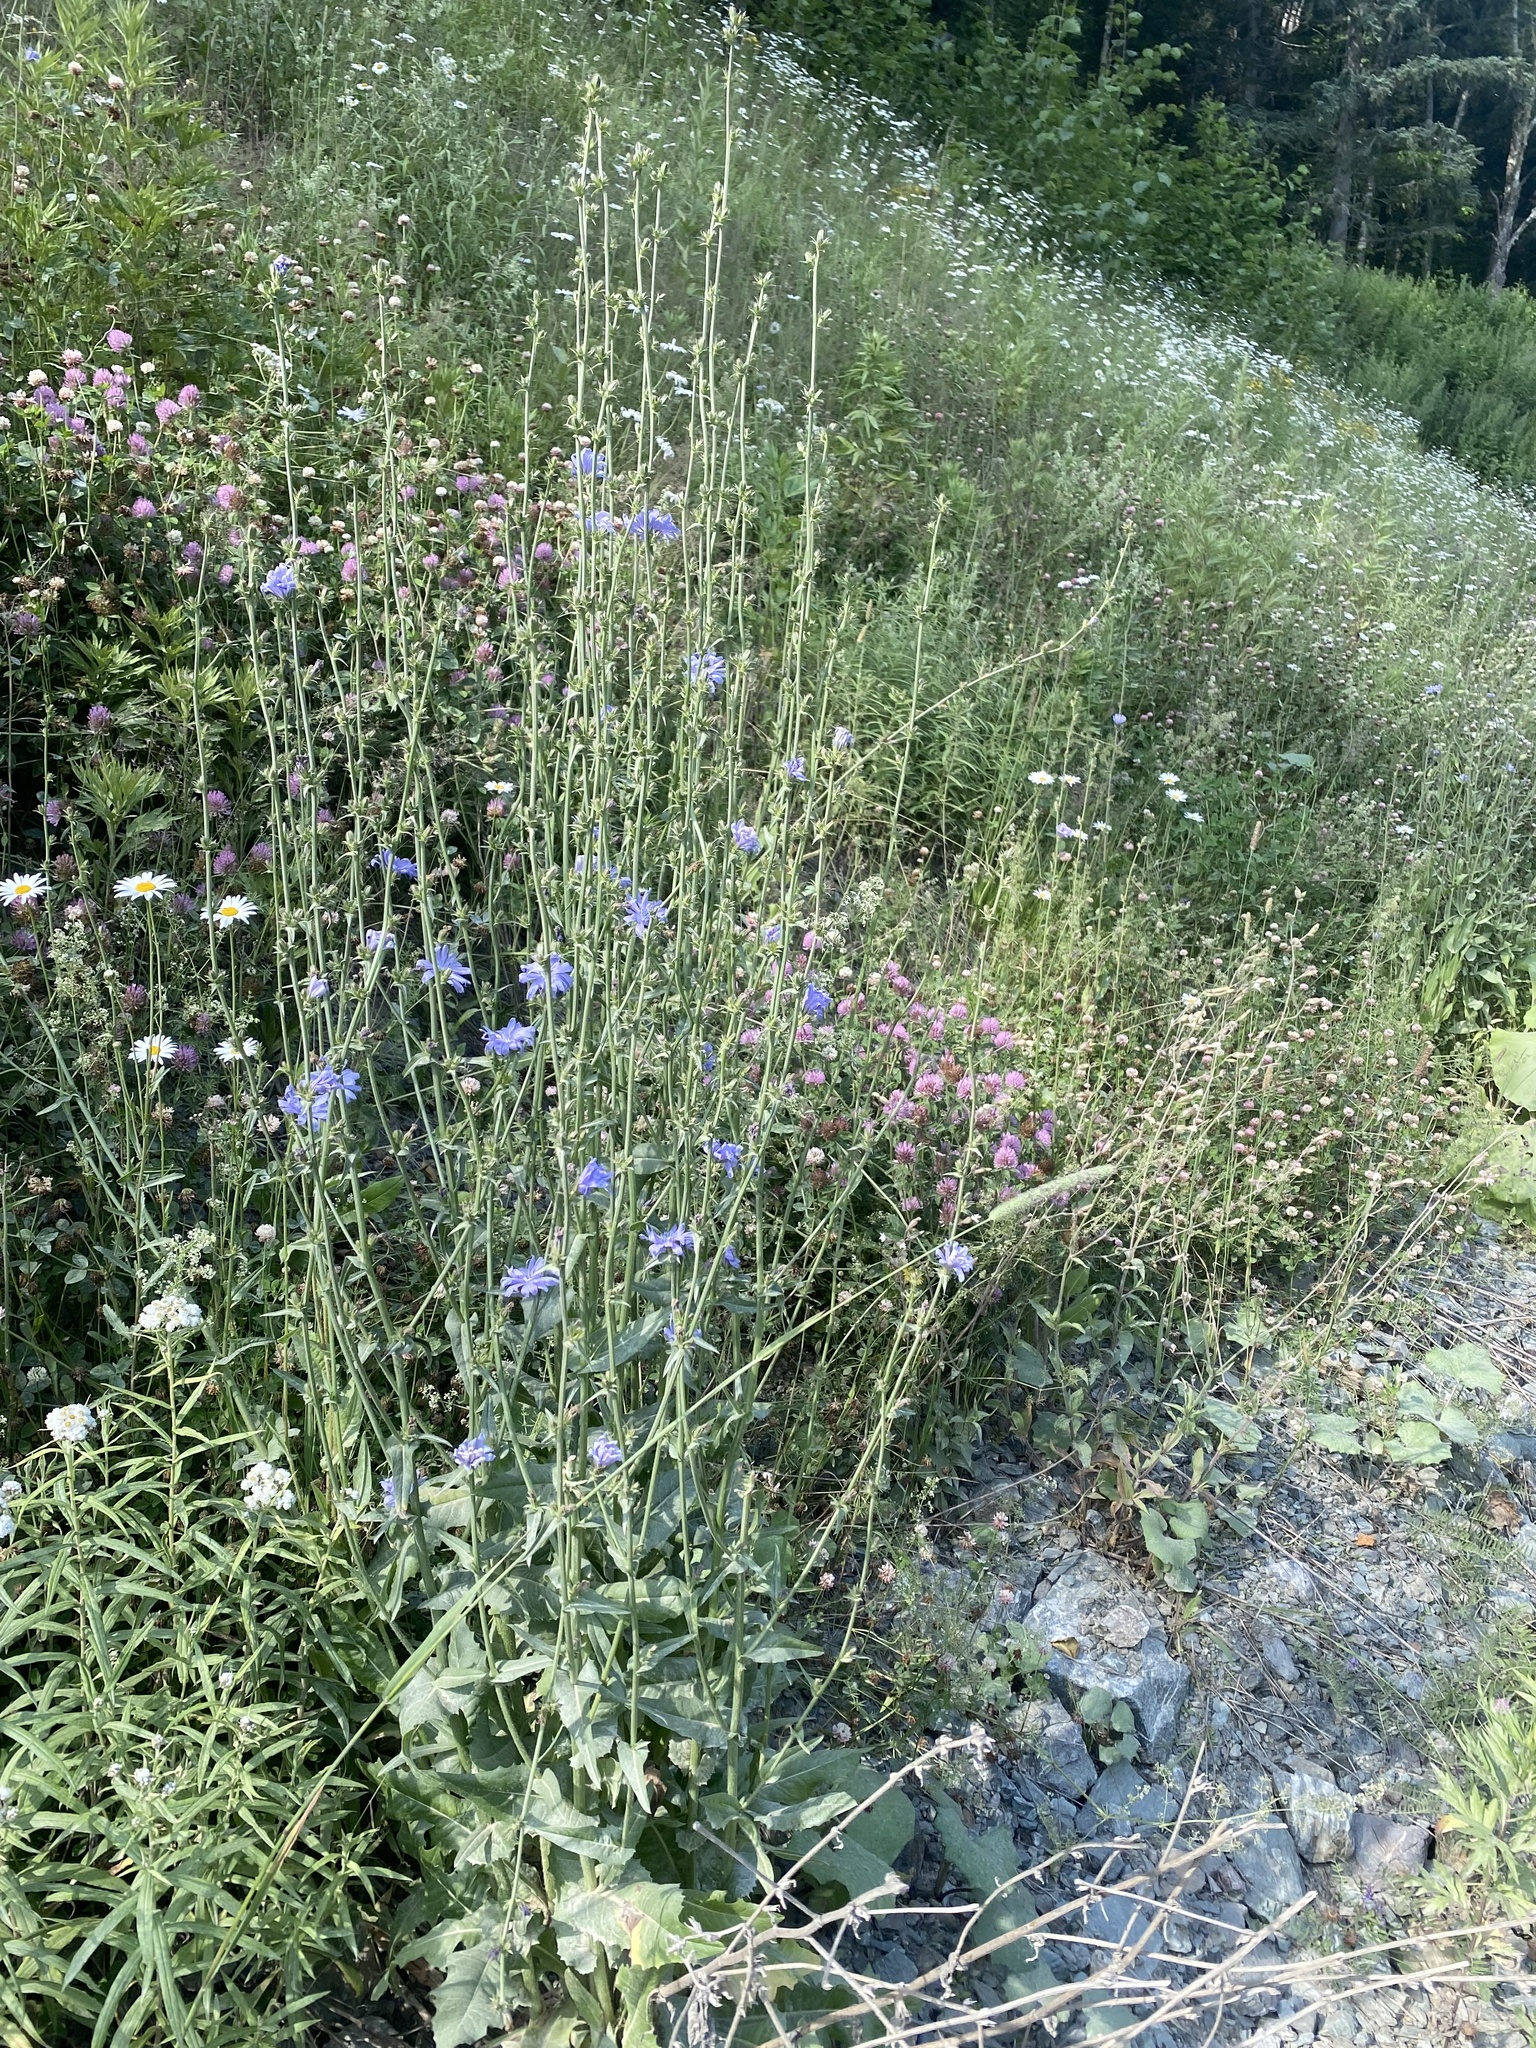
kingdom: Plantae
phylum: Tracheophyta
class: Magnoliopsida
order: Asterales
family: Asteraceae
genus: Cichorium
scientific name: Cichorium intybus
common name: Chicory
